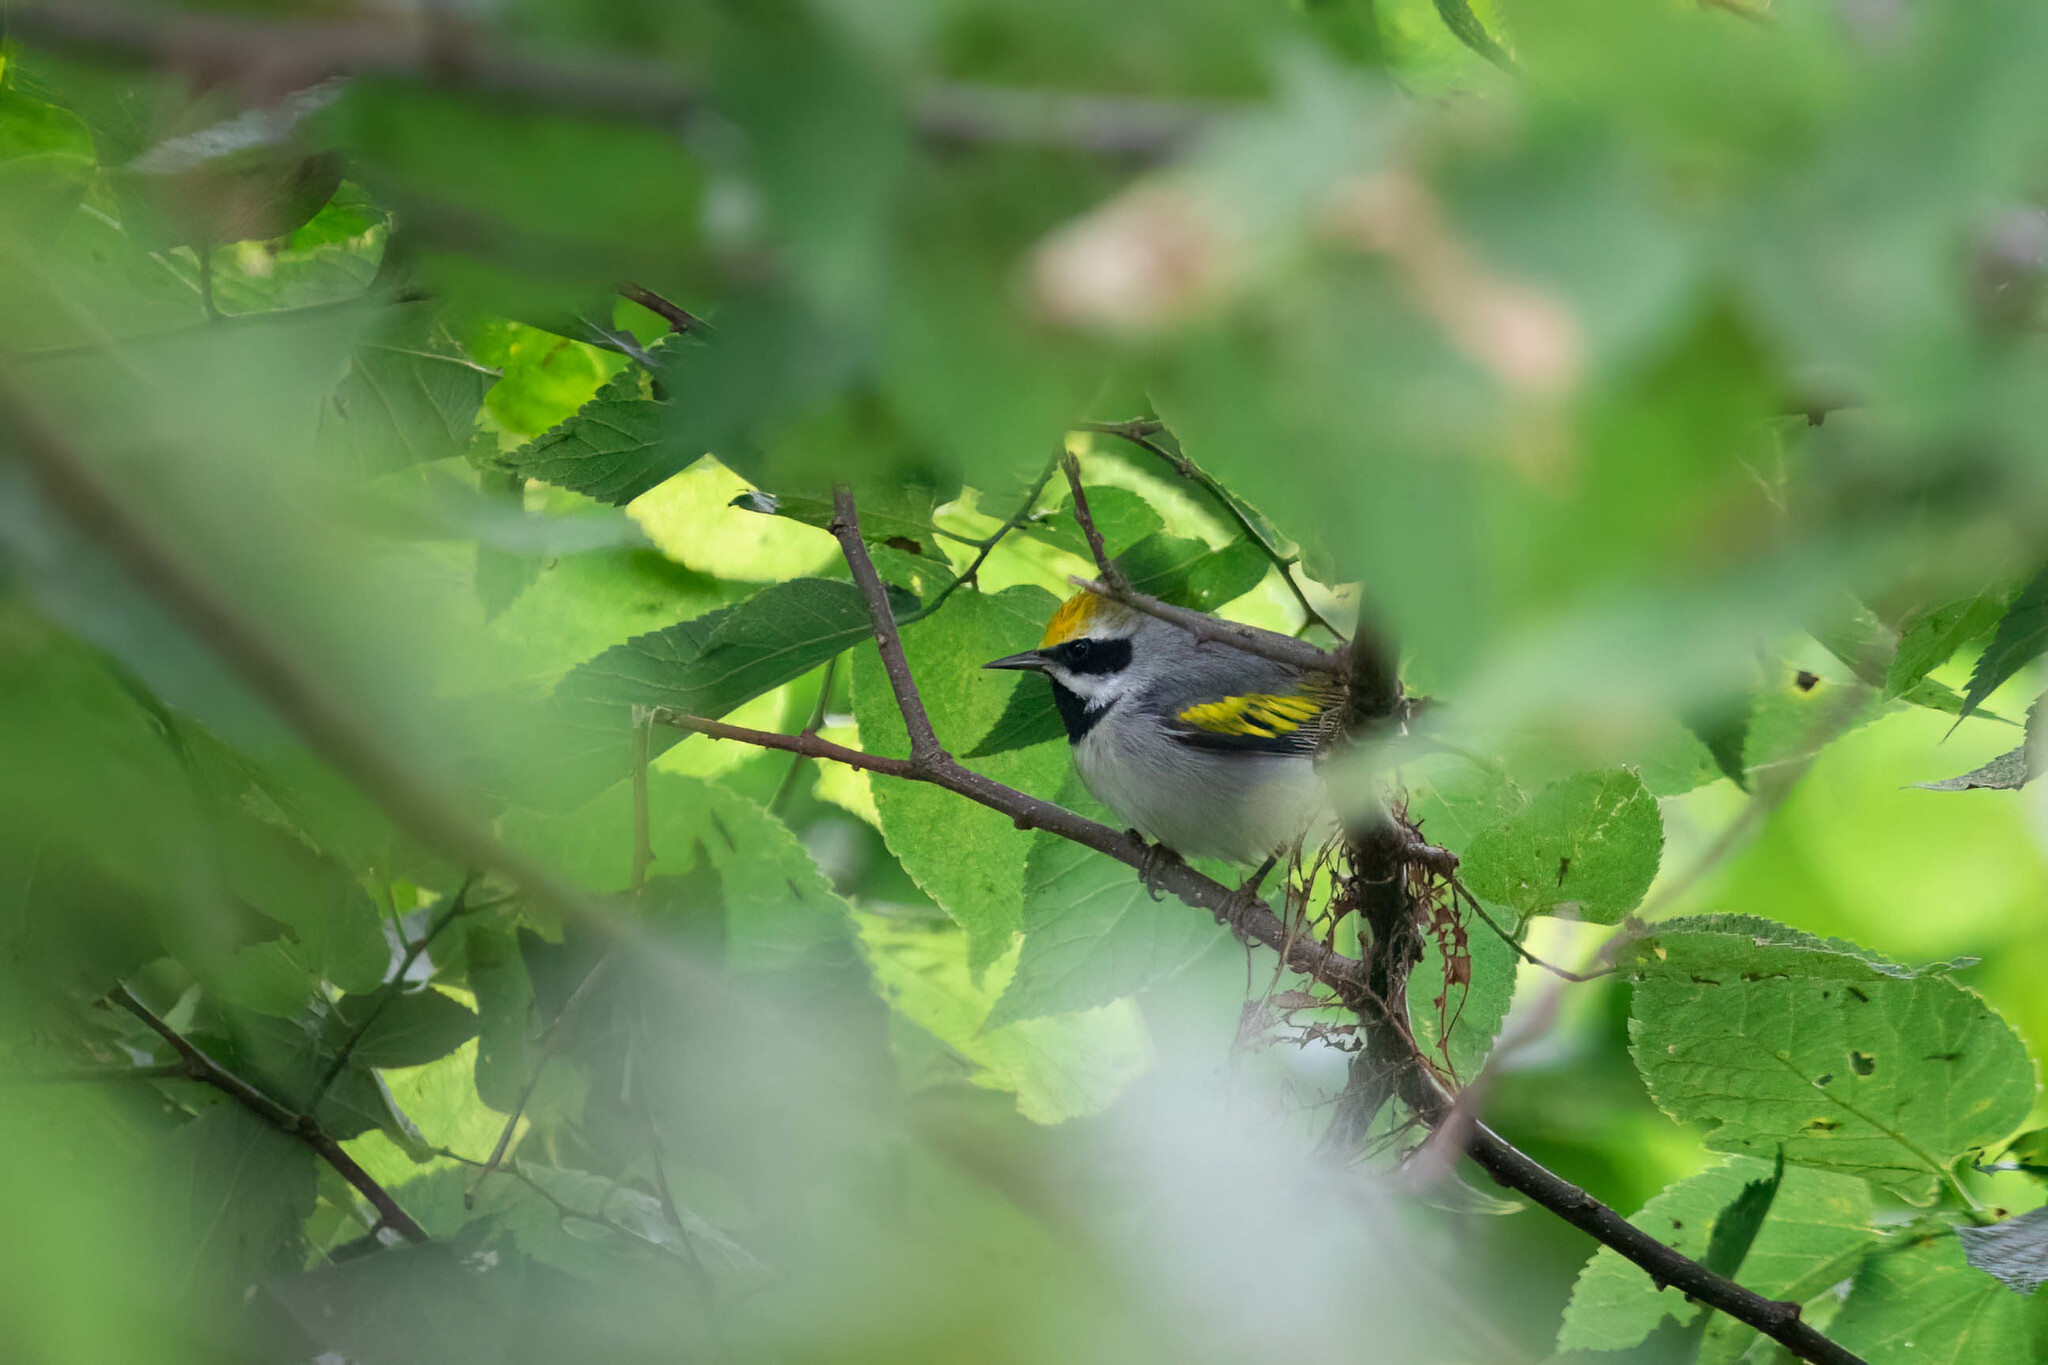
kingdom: Animalia
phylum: Chordata
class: Aves
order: Passeriformes
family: Parulidae
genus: Vermivora
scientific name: Vermivora chrysoptera
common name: Golden-winged warbler
